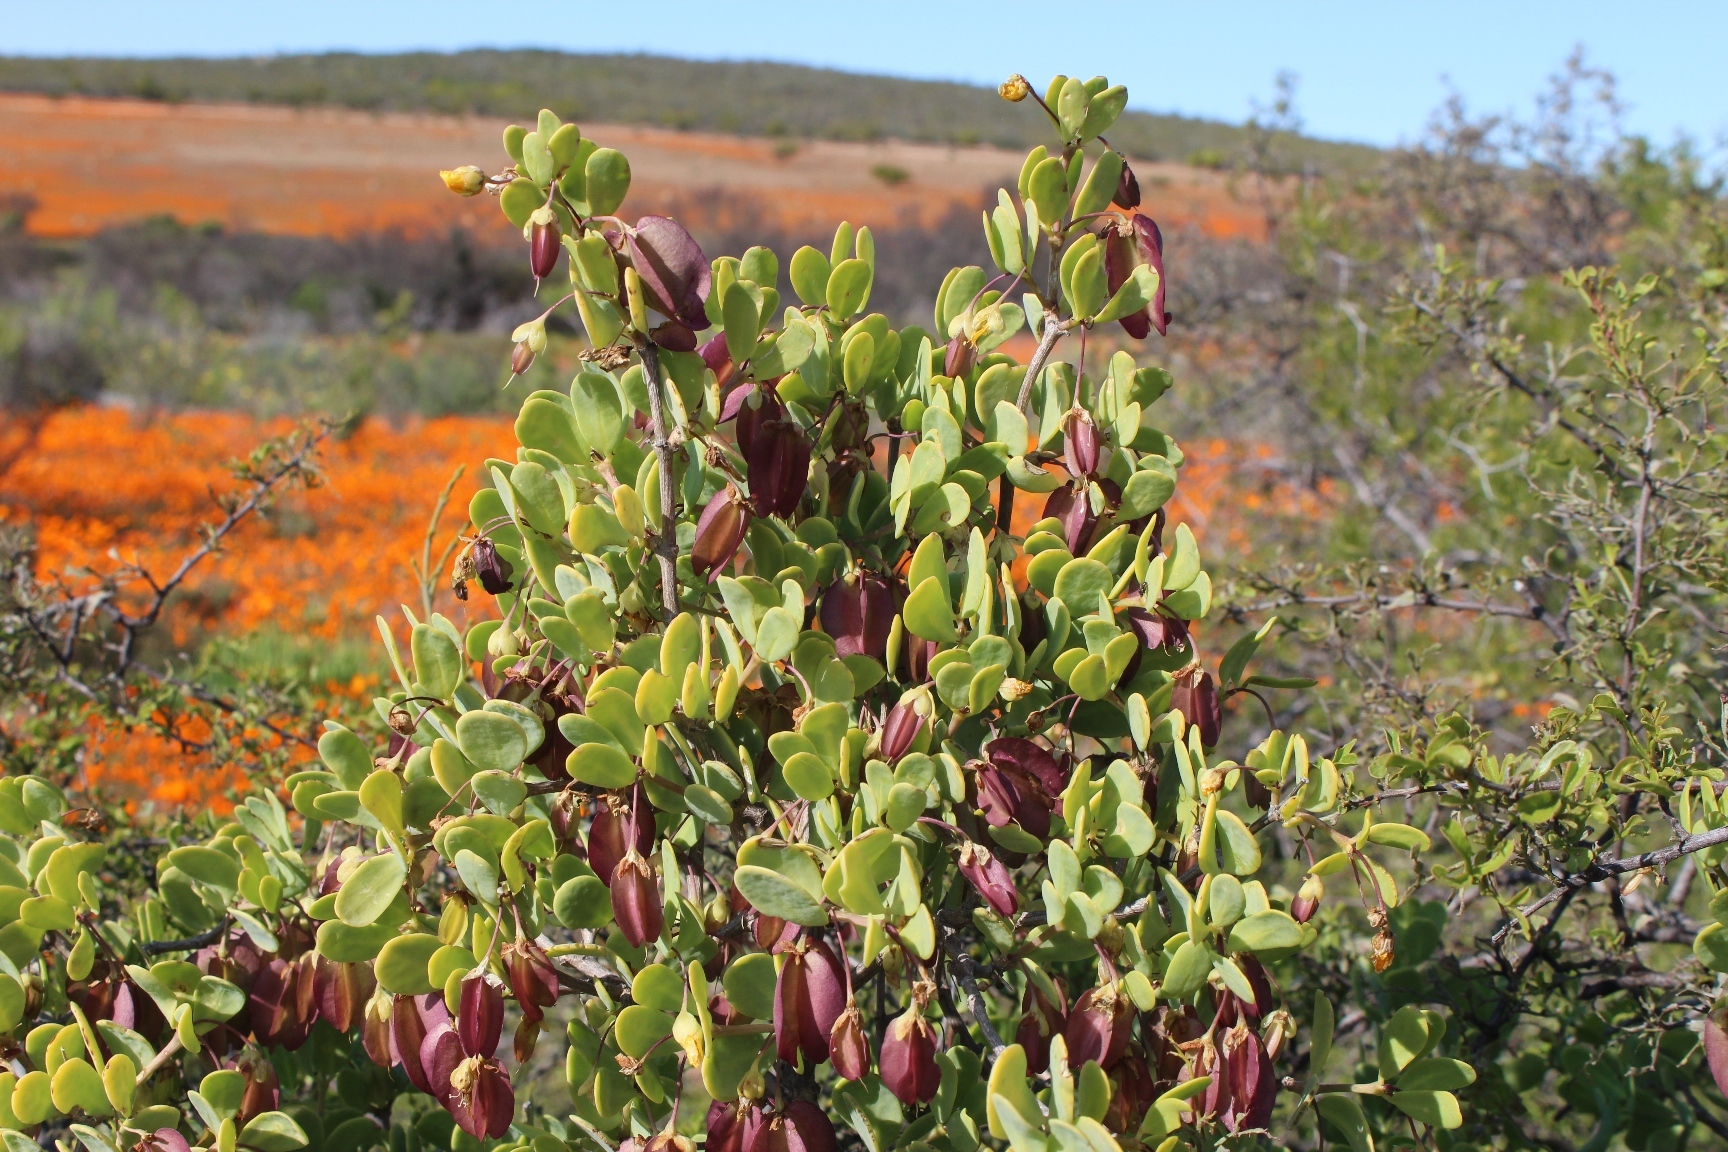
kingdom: Plantae
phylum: Tracheophyta
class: Magnoliopsida
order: Zygophyllales
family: Zygophyllaceae
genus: Roepera
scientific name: Roepera morgsana
